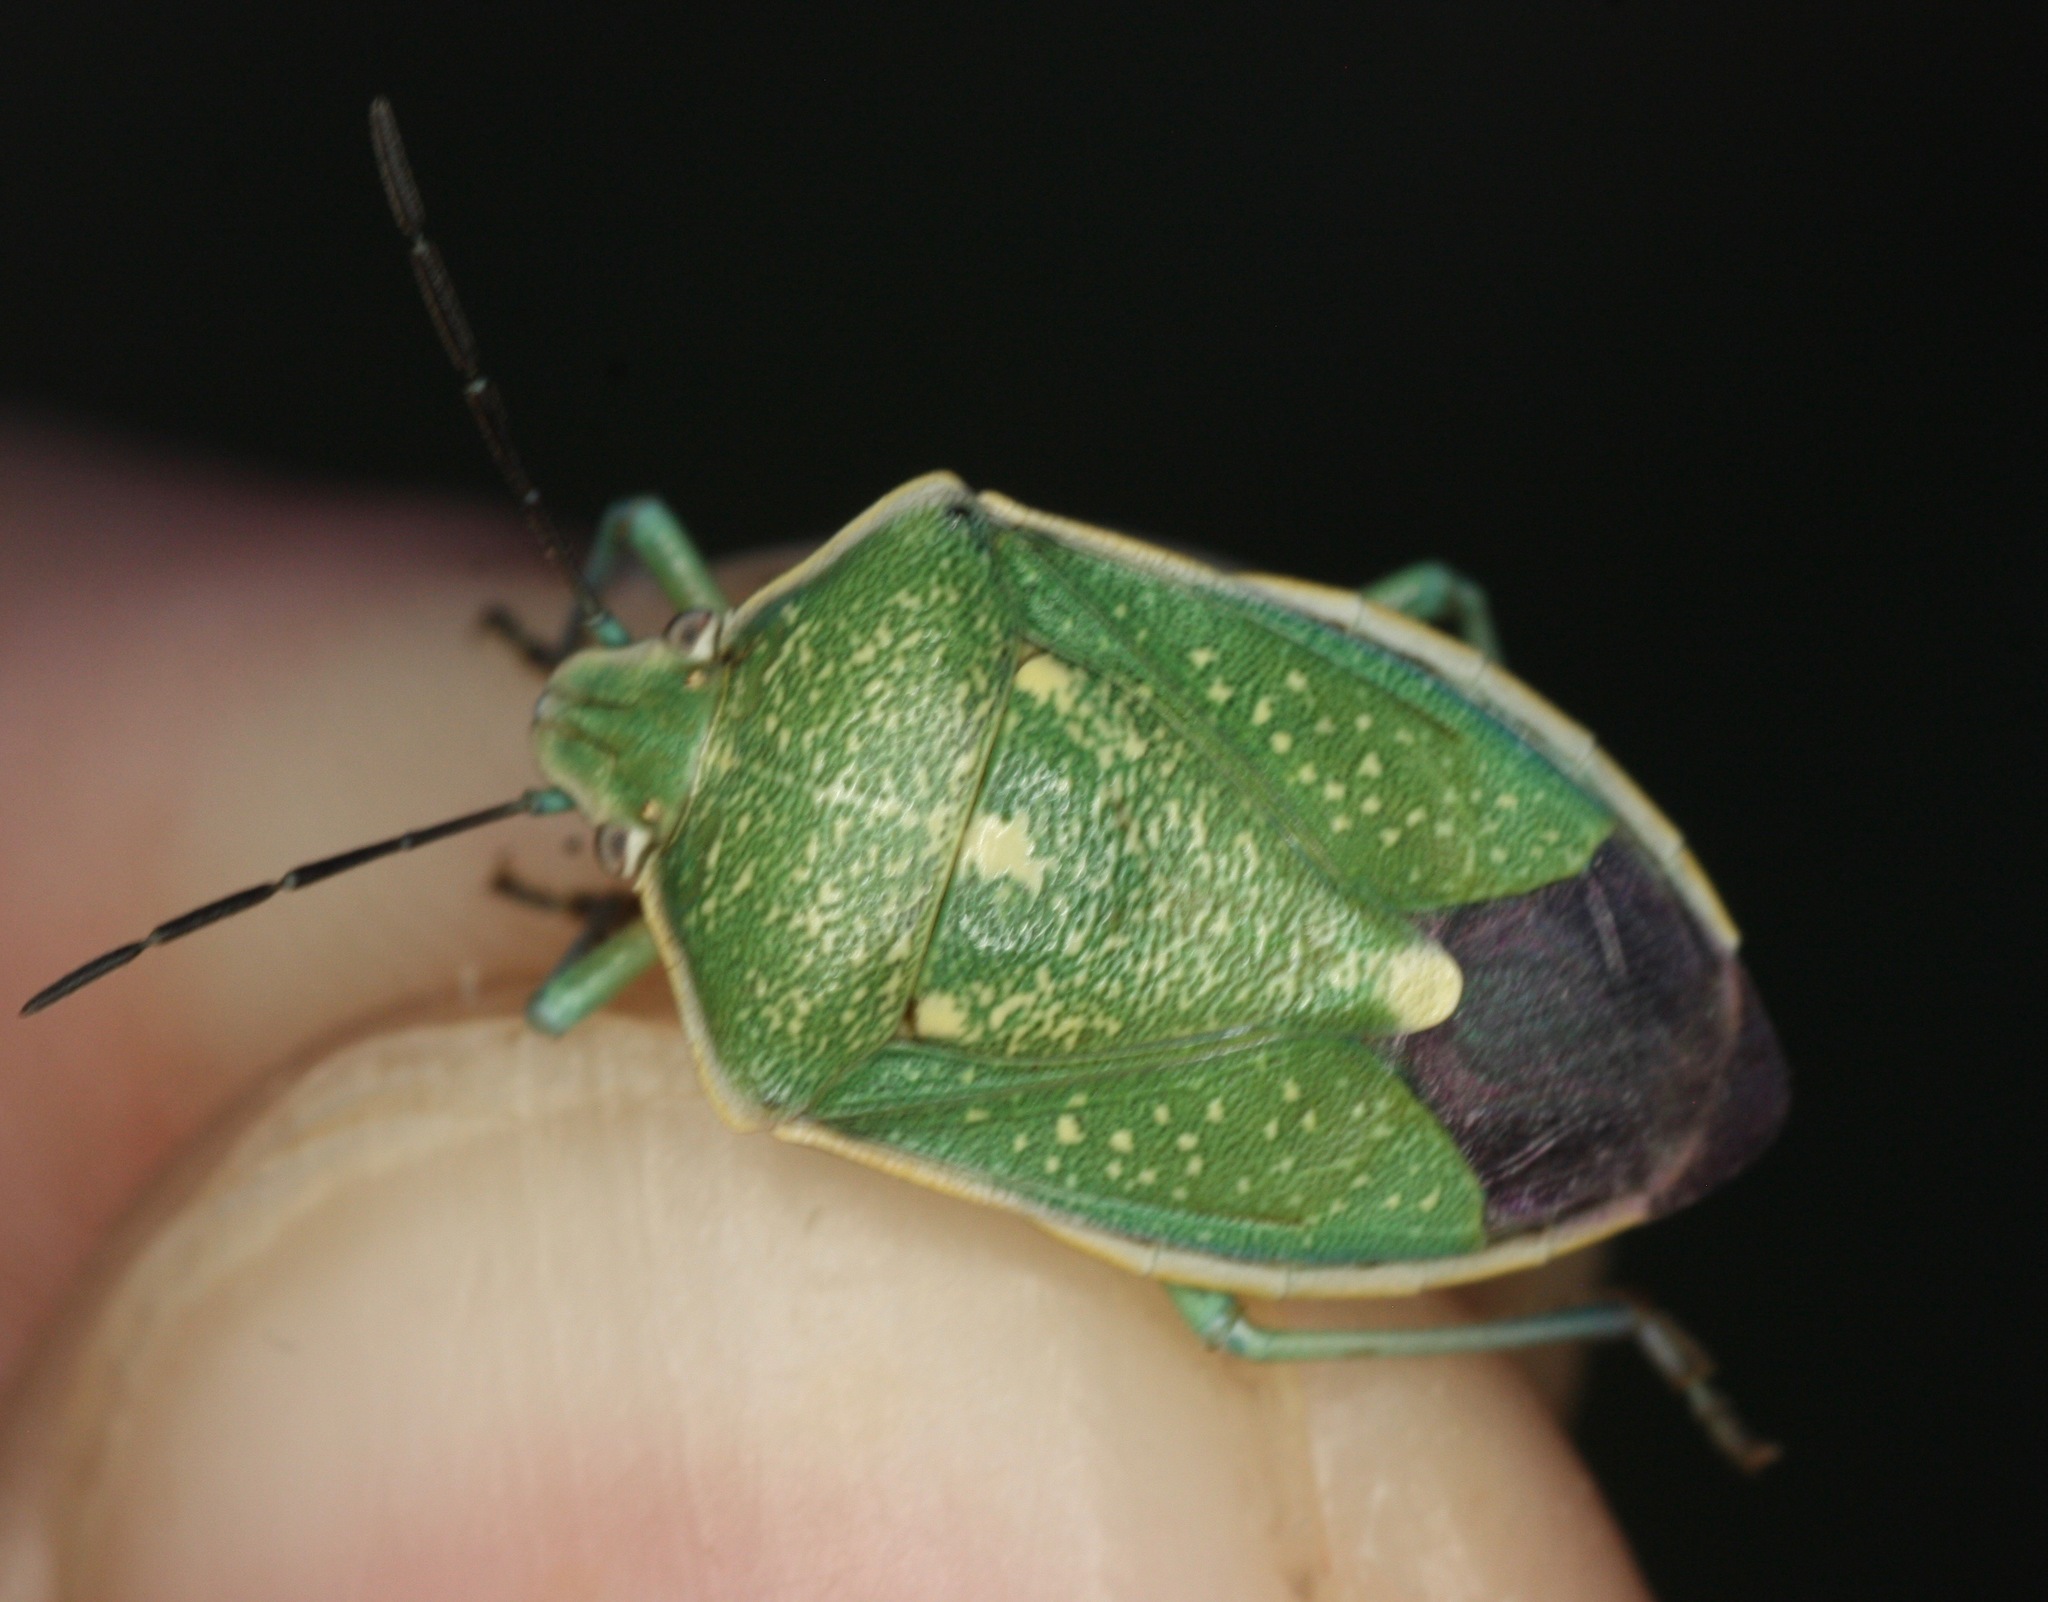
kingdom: Animalia
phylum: Arthropoda
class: Insecta
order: Hemiptera
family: Pentatomidae
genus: Chlorochroa
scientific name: Chlorochroa sayi
